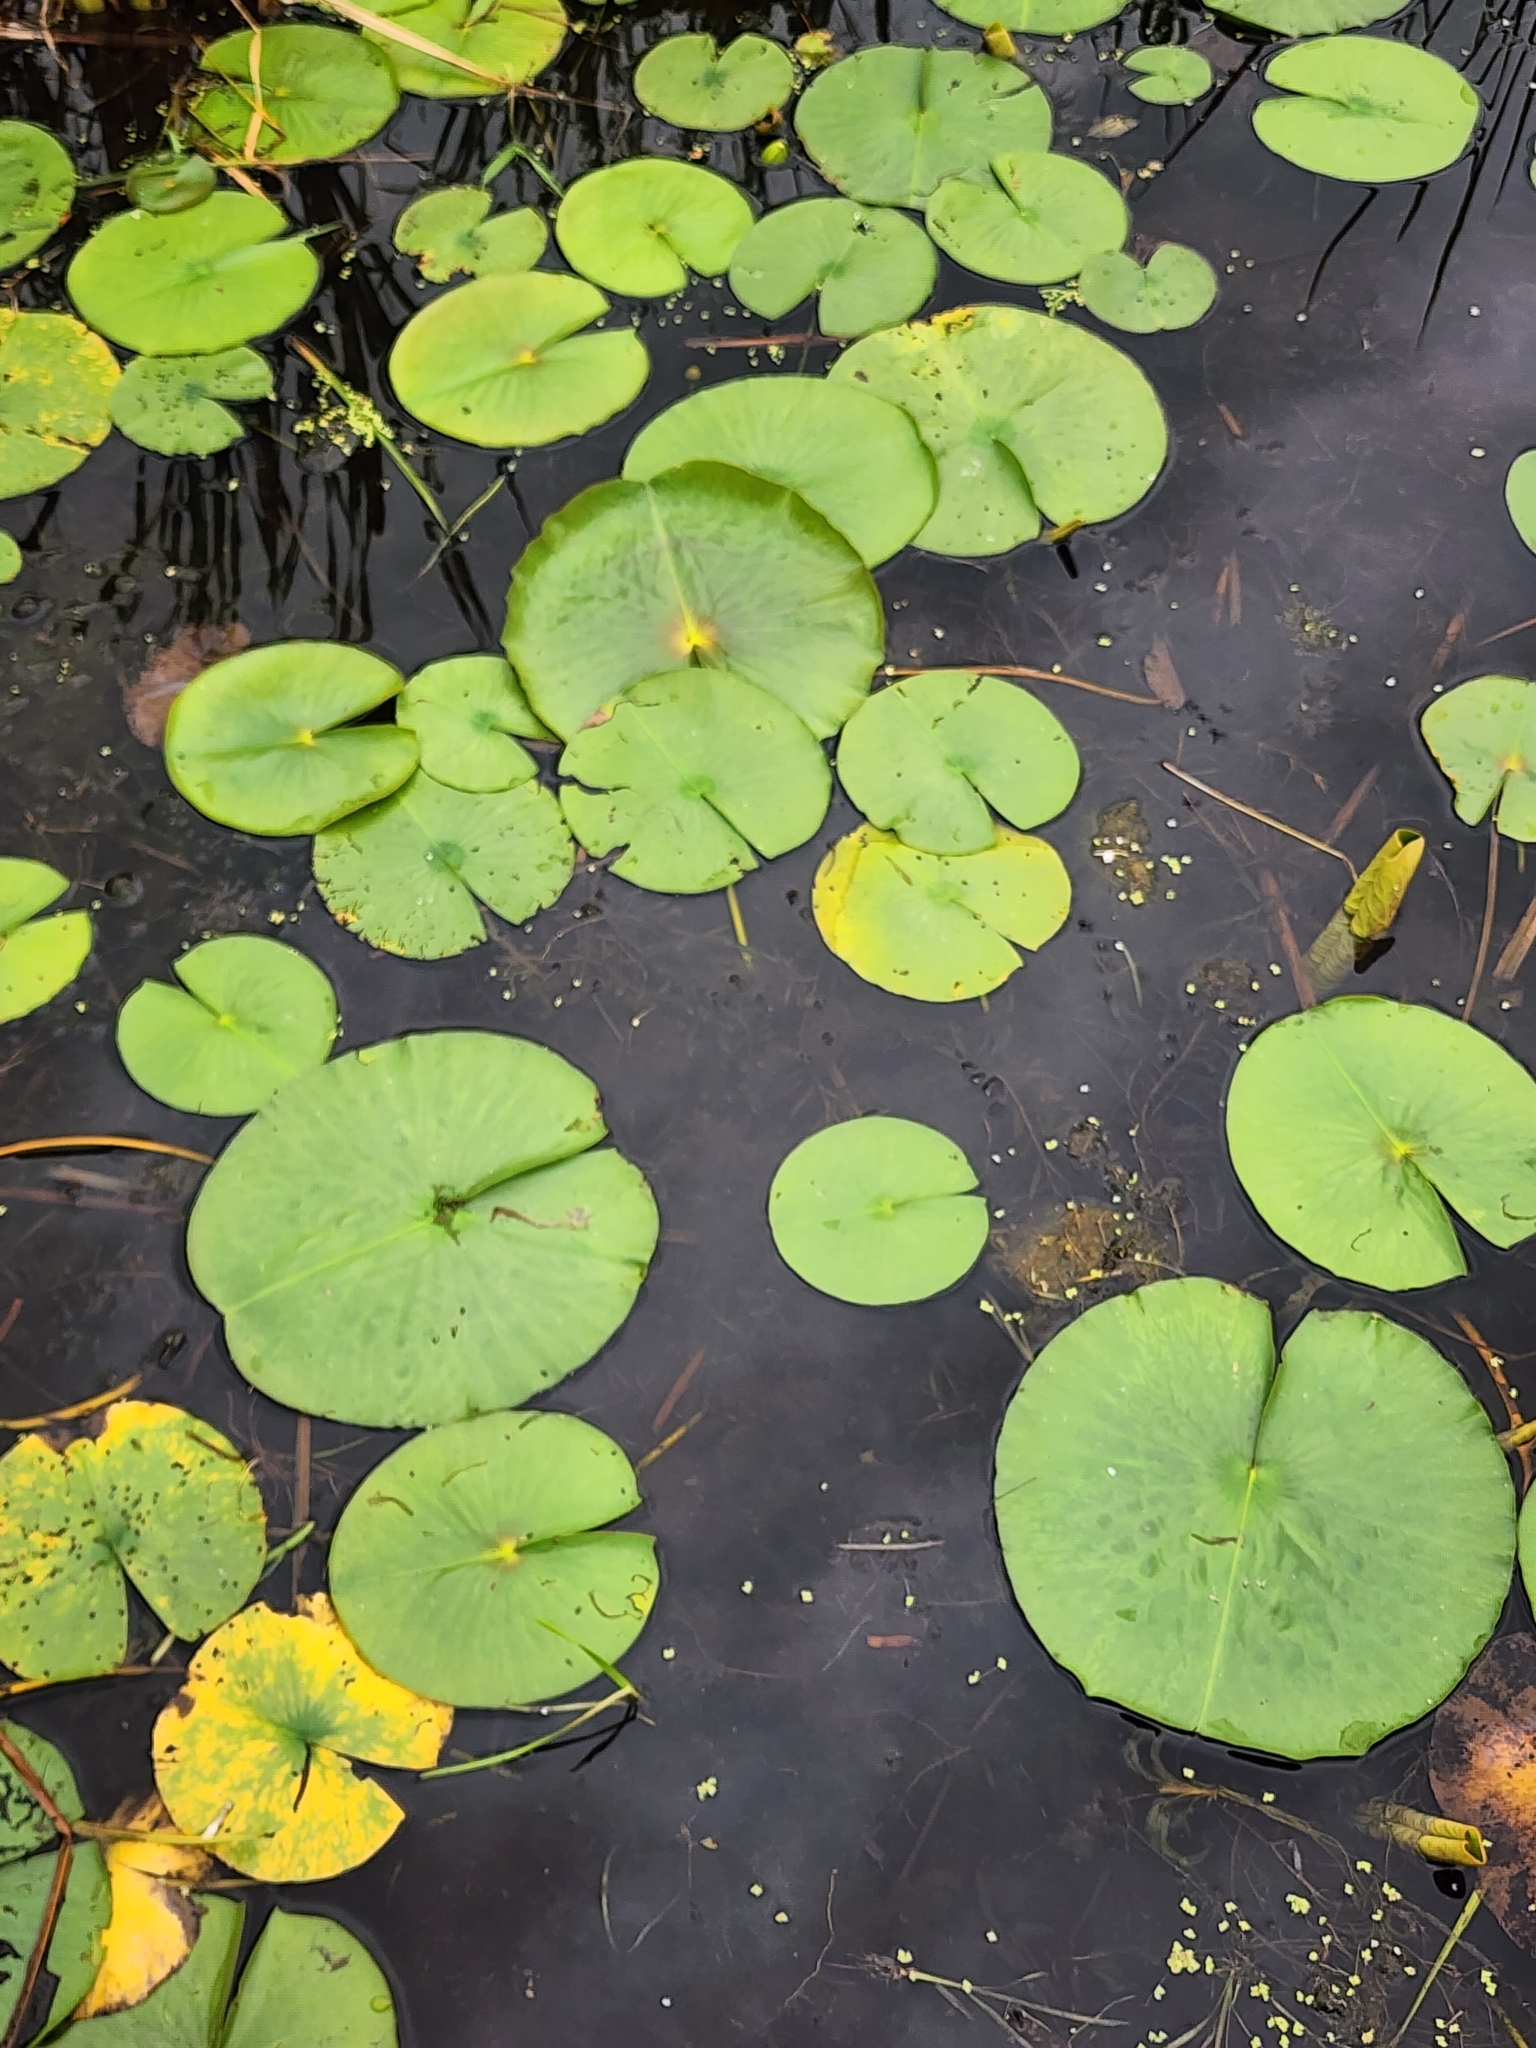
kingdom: Plantae
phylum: Tracheophyta
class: Magnoliopsida
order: Nymphaeales
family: Nymphaeaceae
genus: Nymphaea
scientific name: Nymphaea odorata
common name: Fragrant water-lily
